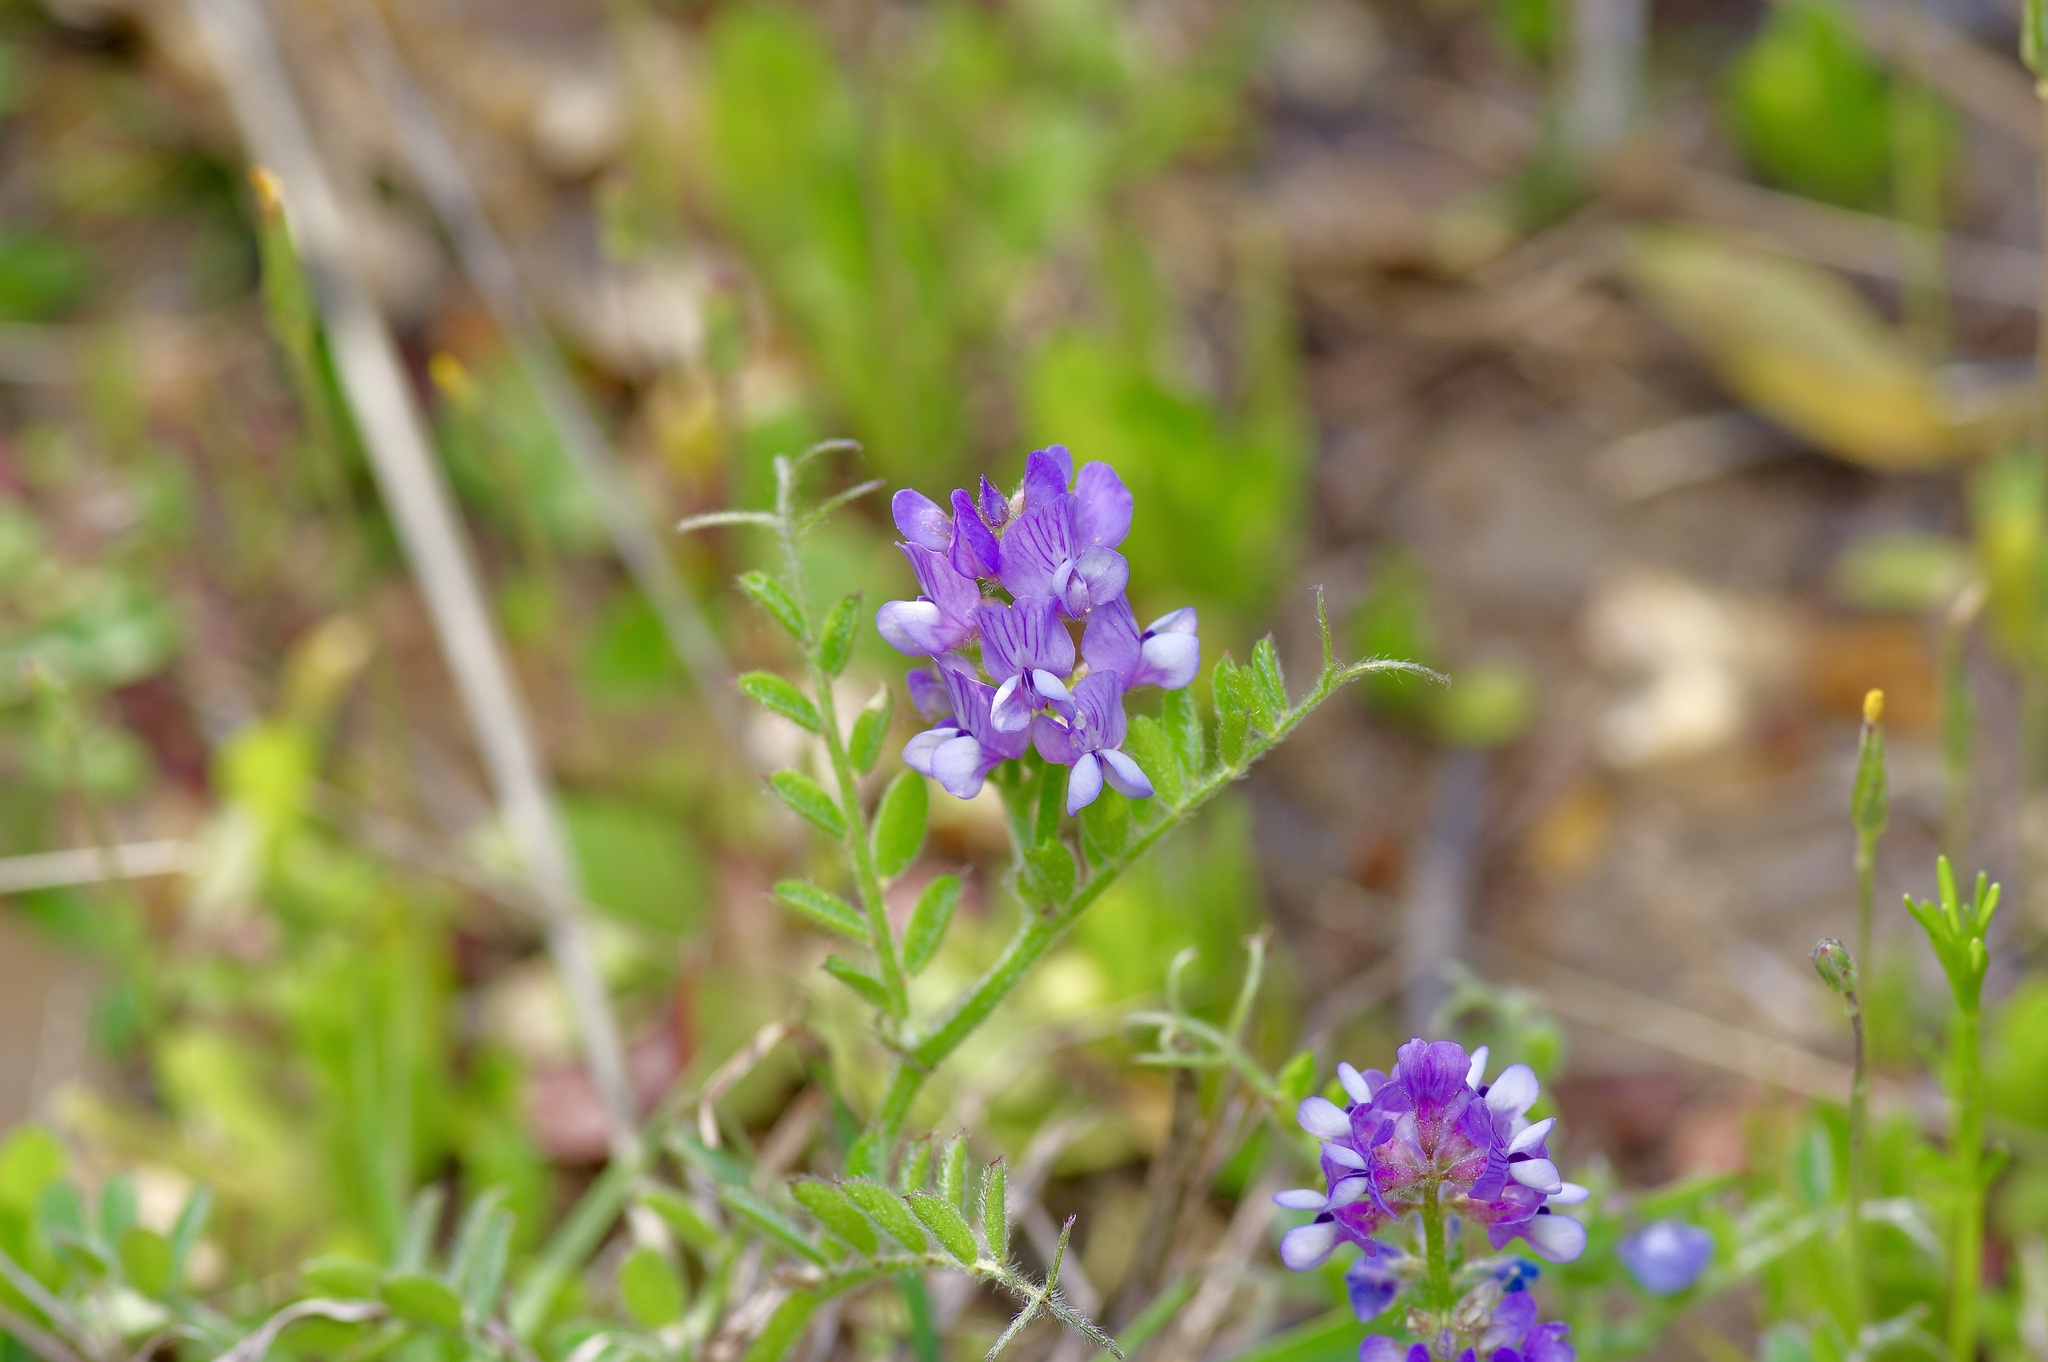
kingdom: Plantae
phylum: Tracheophyta
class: Magnoliopsida
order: Fabales
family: Fabaceae
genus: Vicia
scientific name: Vicia ludoviciana
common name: Louisiana vetch
